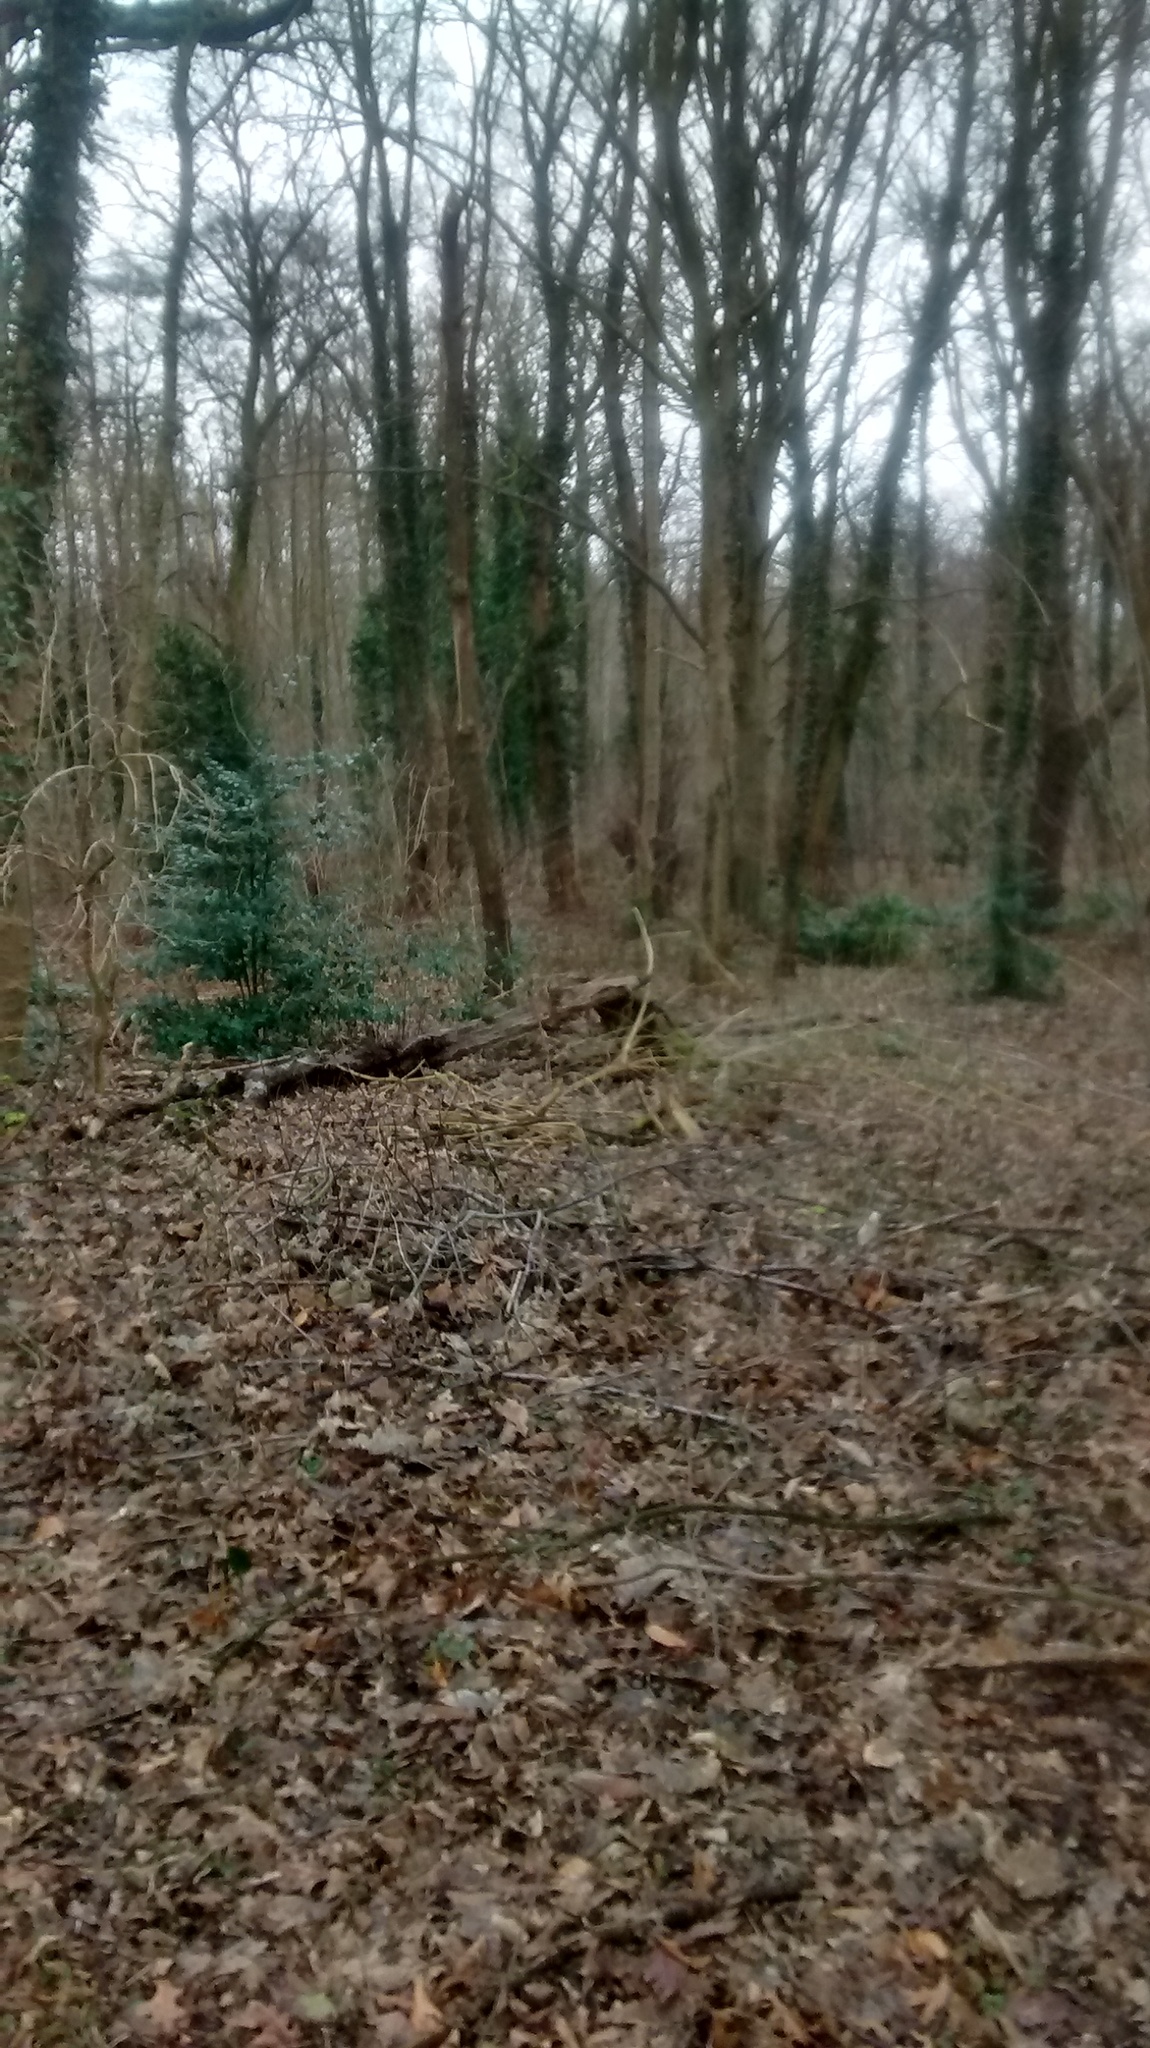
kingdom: Plantae
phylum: Tracheophyta
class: Magnoliopsida
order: Rosales
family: Rosaceae
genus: Prunus
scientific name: Prunus laurocerasus
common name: Cherry laurel
